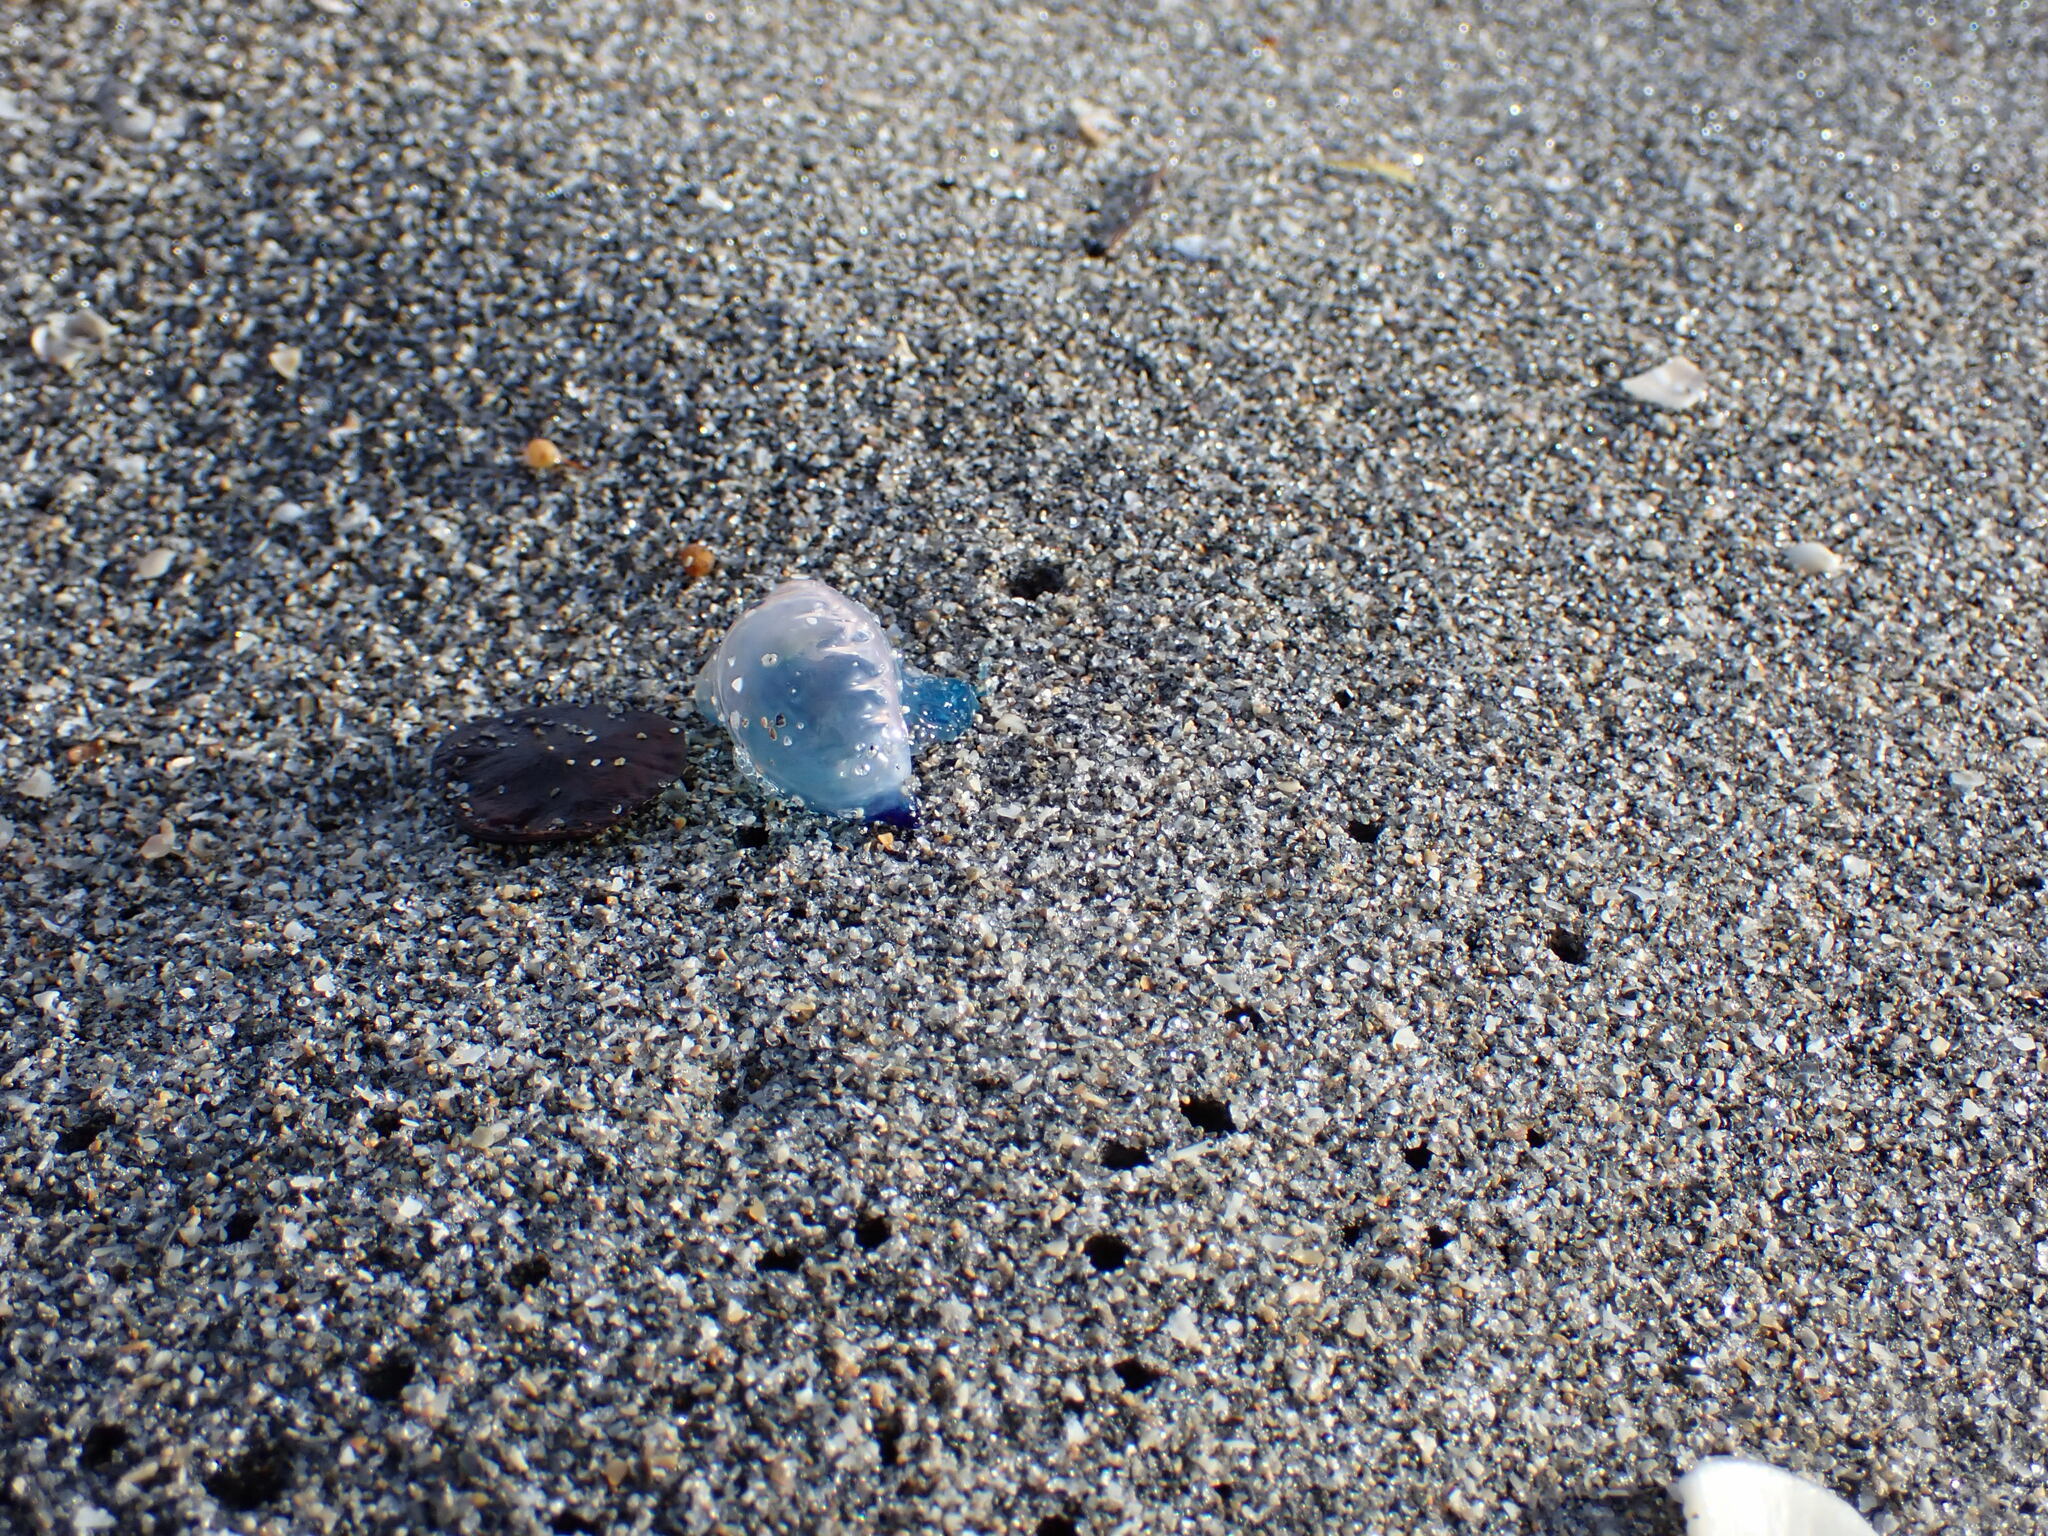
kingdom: Animalia
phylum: Cnidaria
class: Hydrozoa
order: Siphonophorae
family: Physaliidae
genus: Physalia
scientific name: Physalia physalis
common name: Portuguese man-of-war
